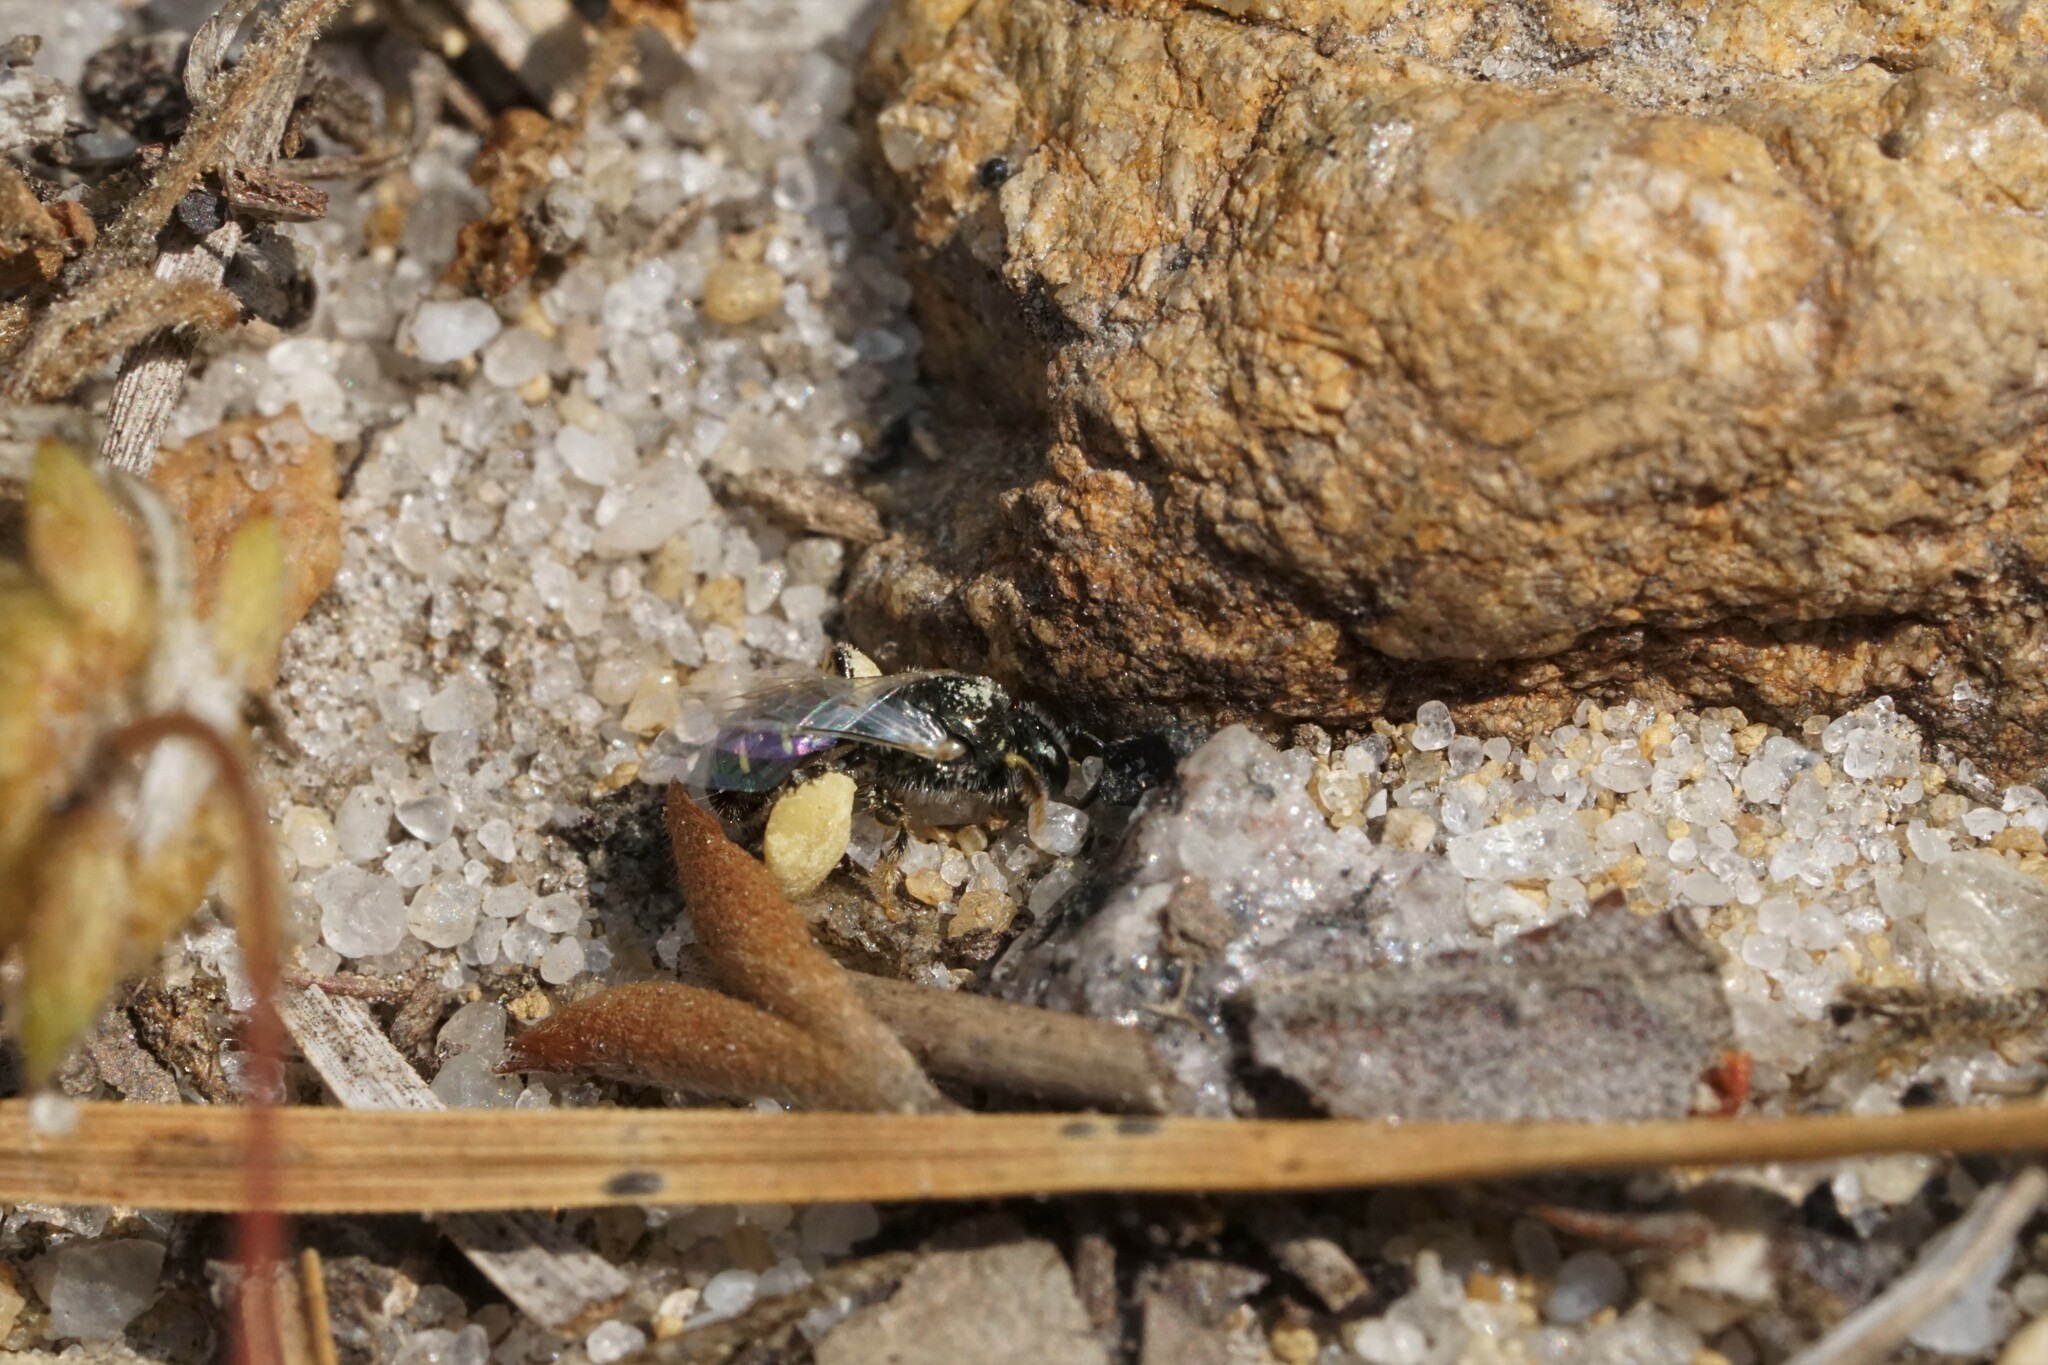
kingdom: Animalia
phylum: Arthropoda
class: Insecta
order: Hymenoptera
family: Andrenidae
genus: Perdita
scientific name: Perdita bradleyi
